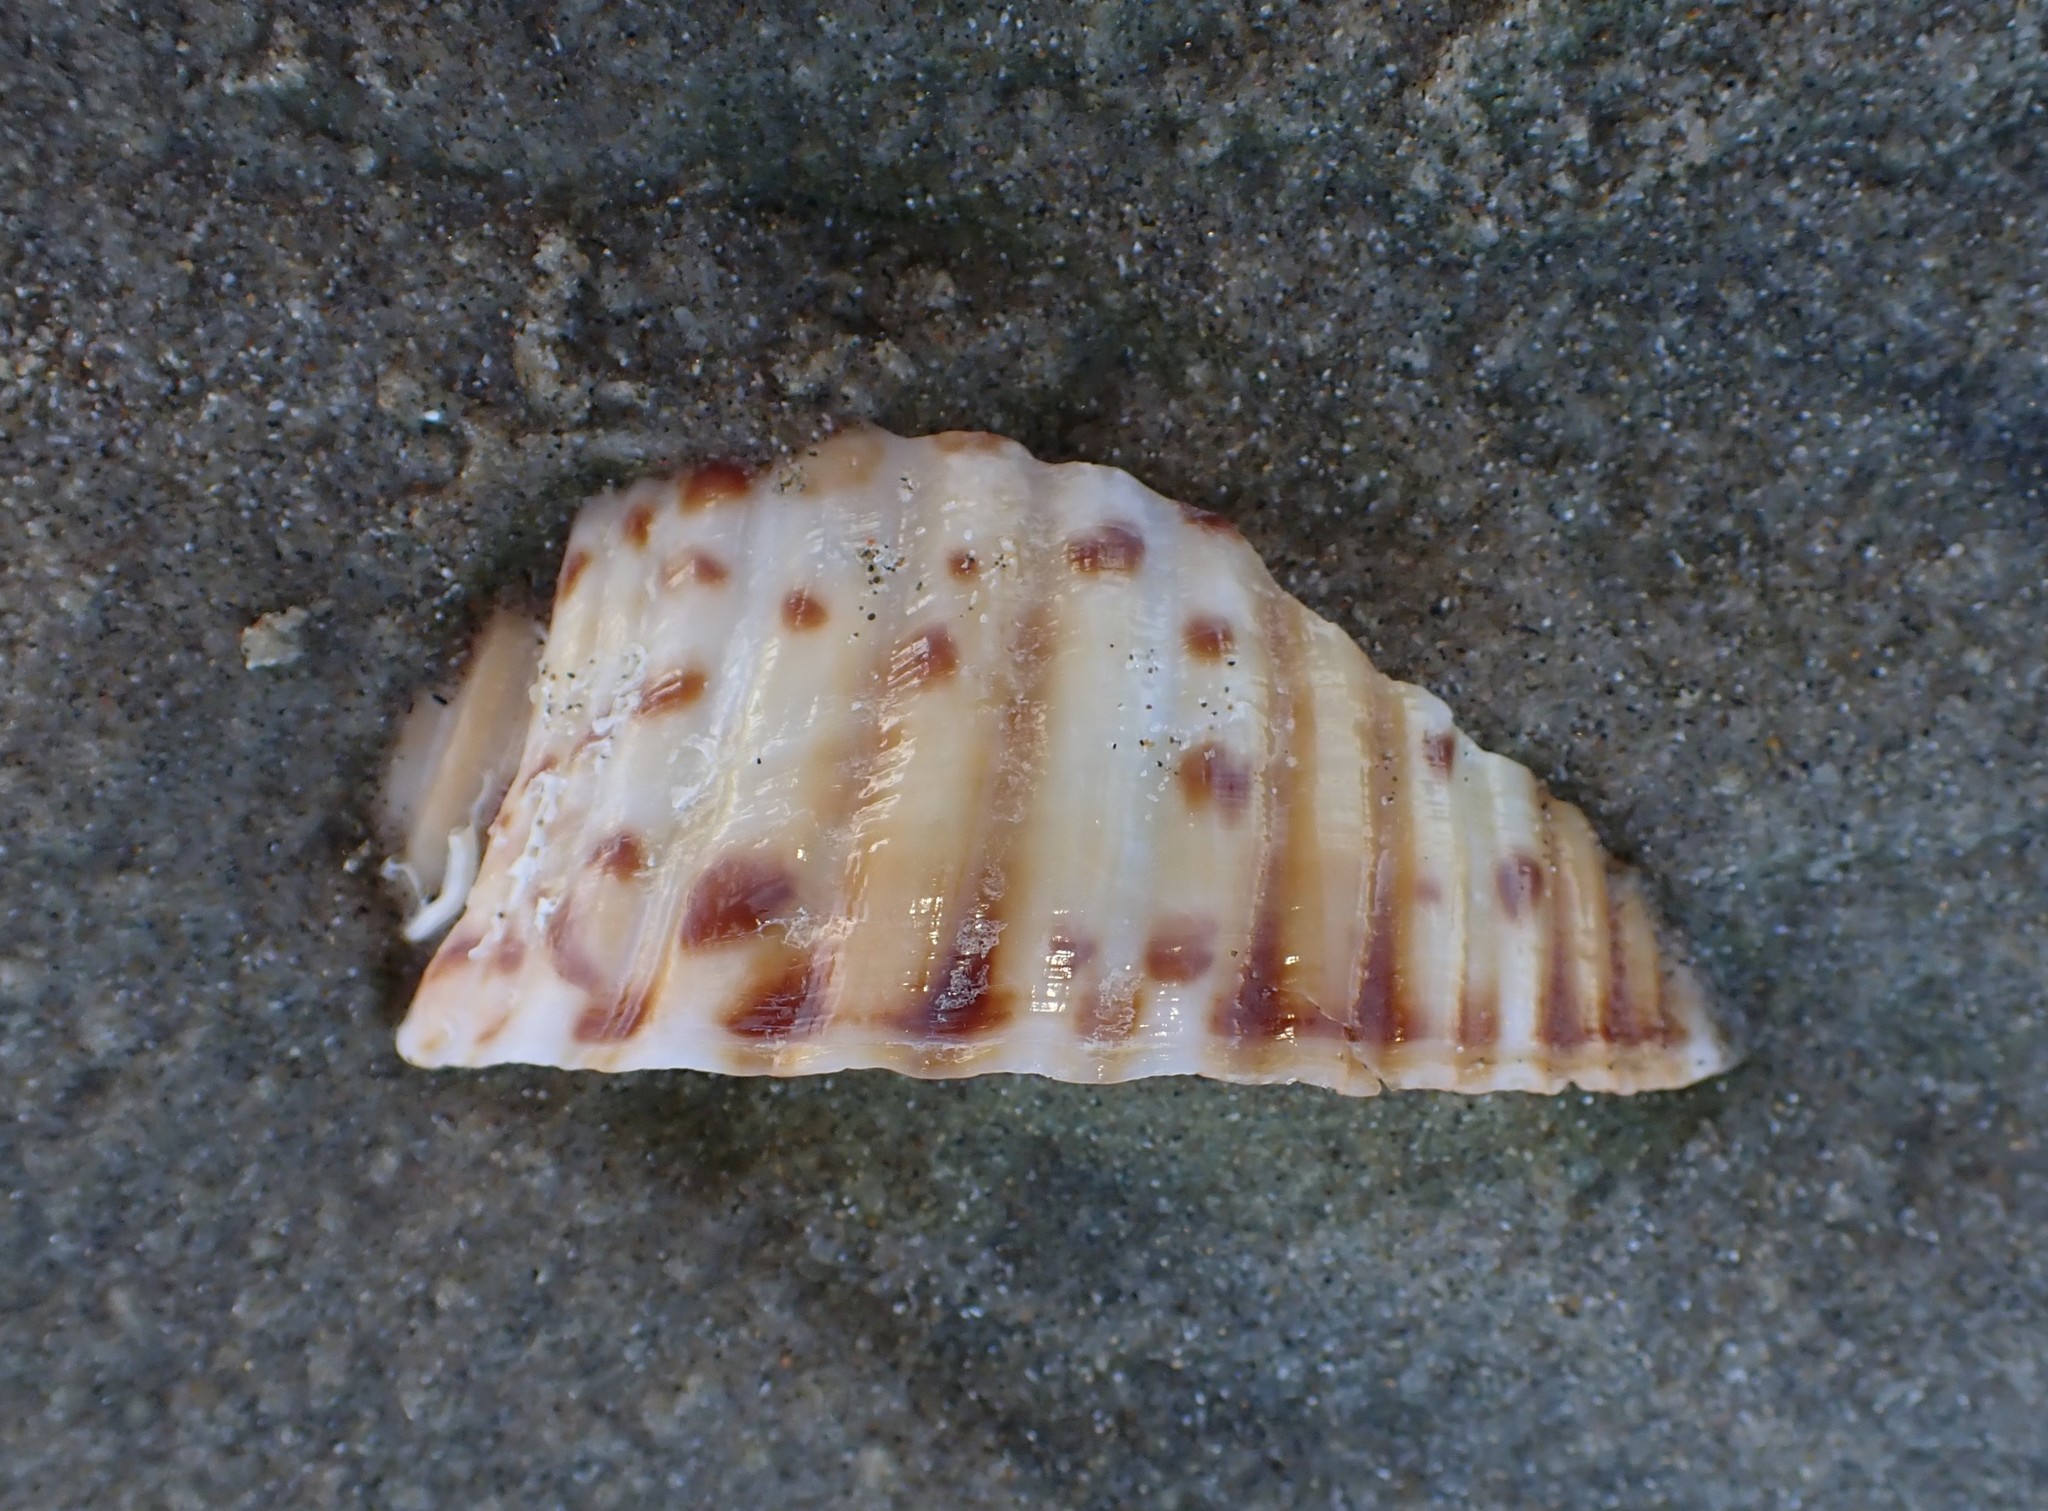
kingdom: Animalia
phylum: Mollusca
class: Gastropoda
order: Littorinimorpha
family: Tonnidae
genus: Tonna
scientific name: Tonna tankervillii
